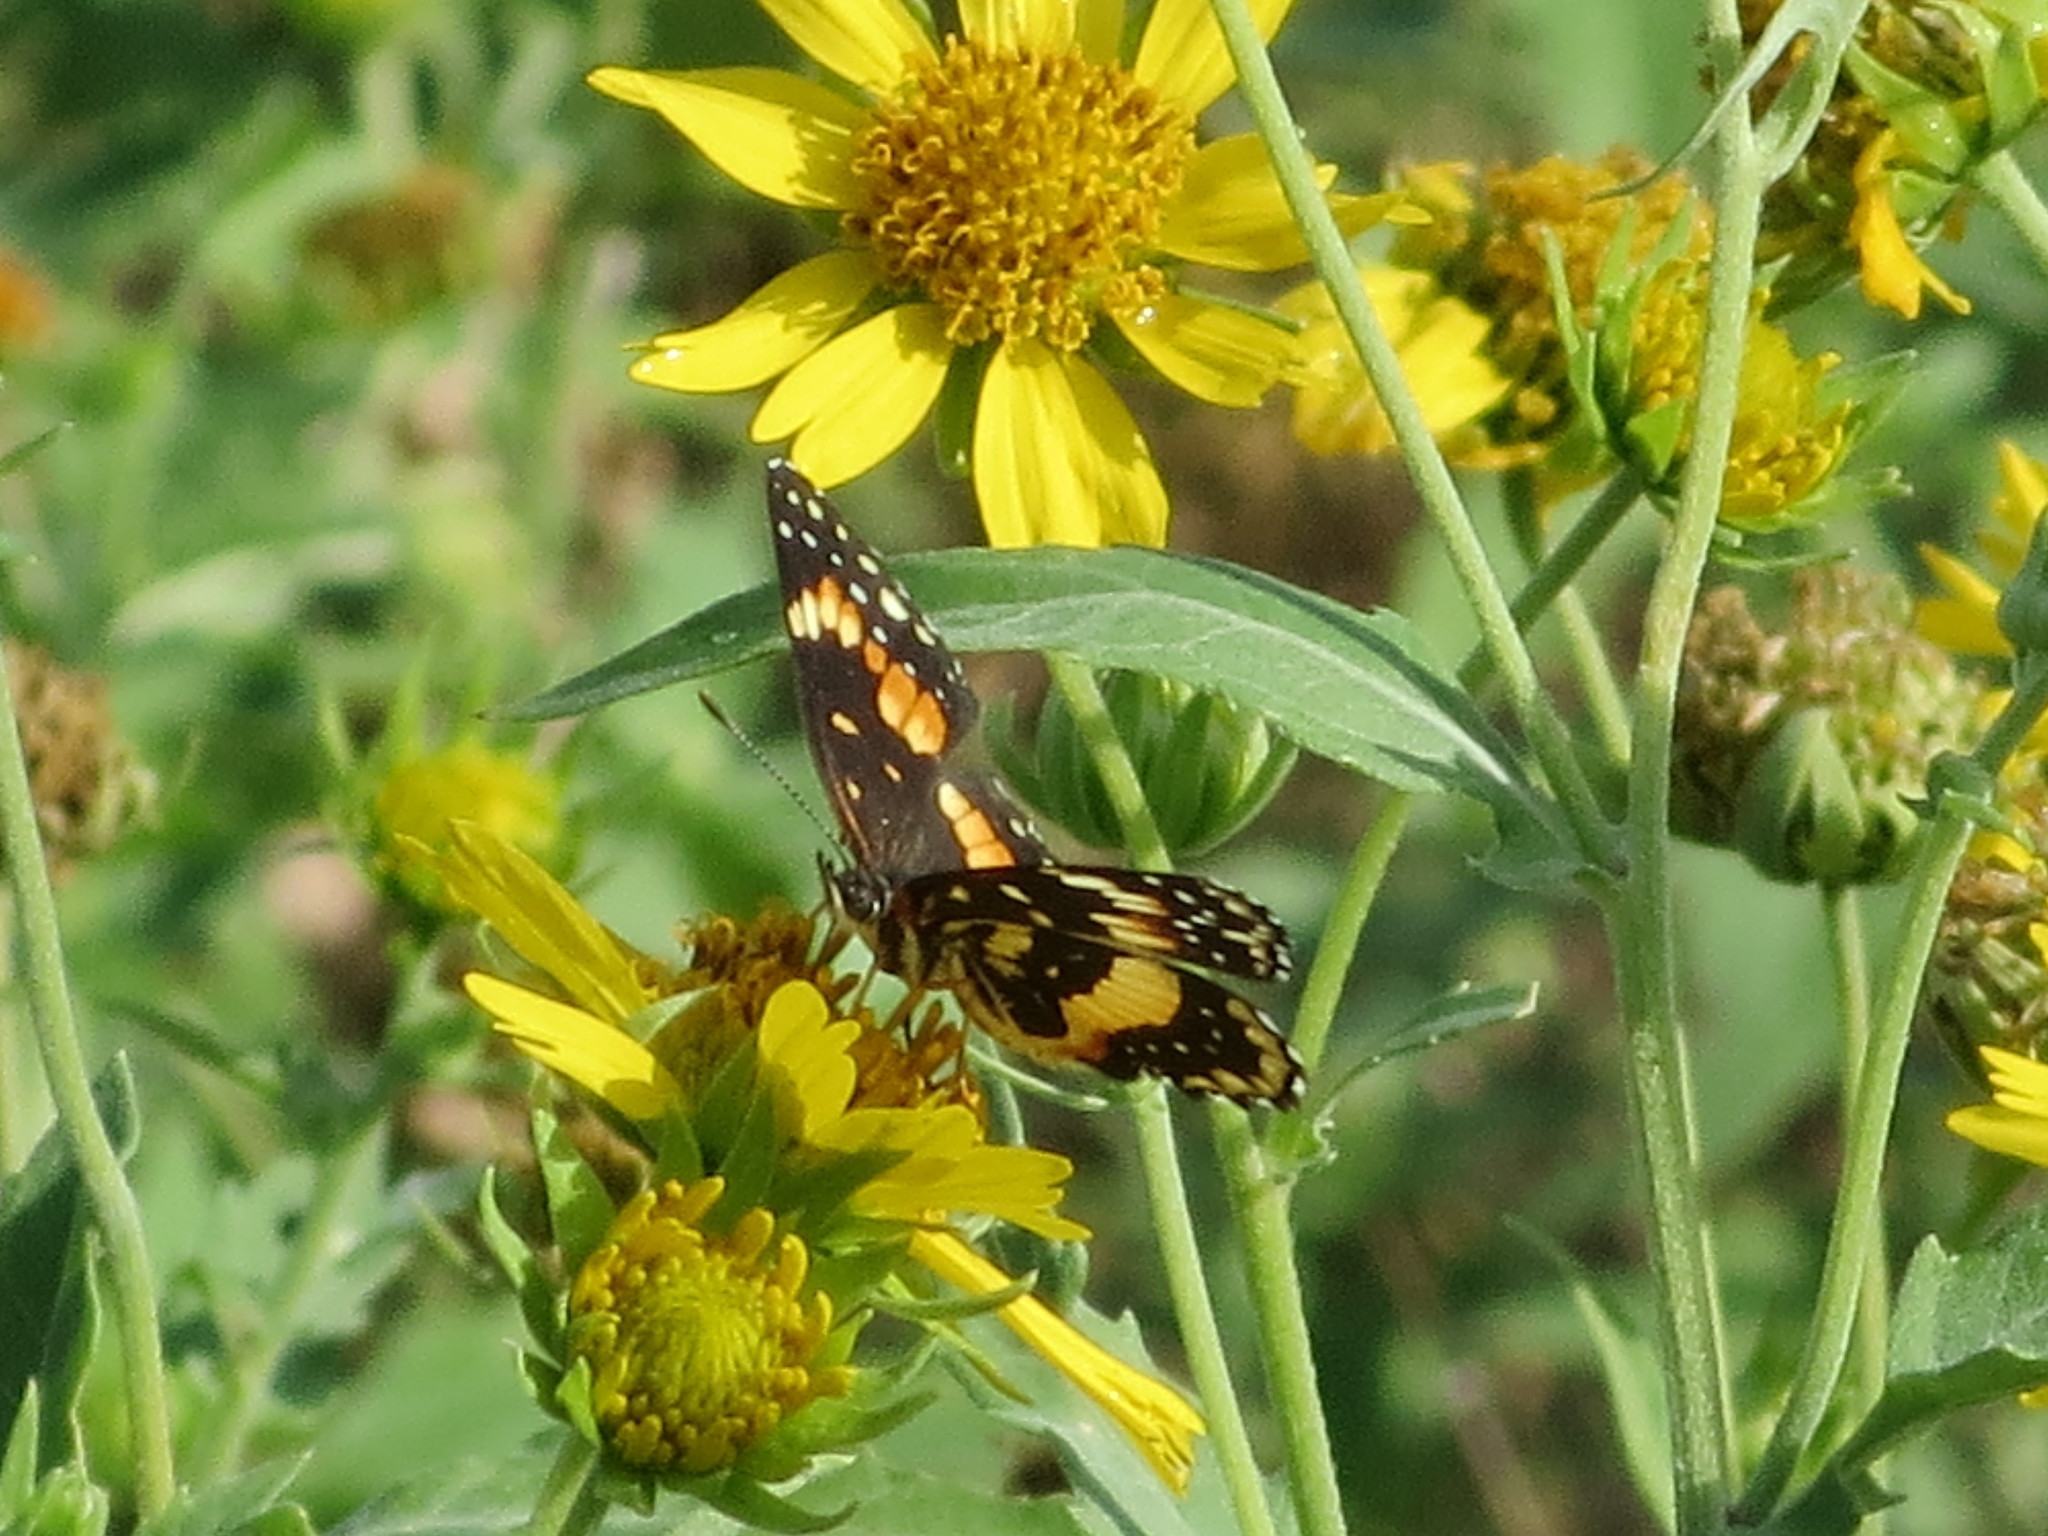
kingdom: Animalia
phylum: Arthropoda
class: Insecta
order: Lepidoptera
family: Nymphalidae
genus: Chlosyne
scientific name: Chlosyne lacinia
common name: Bordered patch
